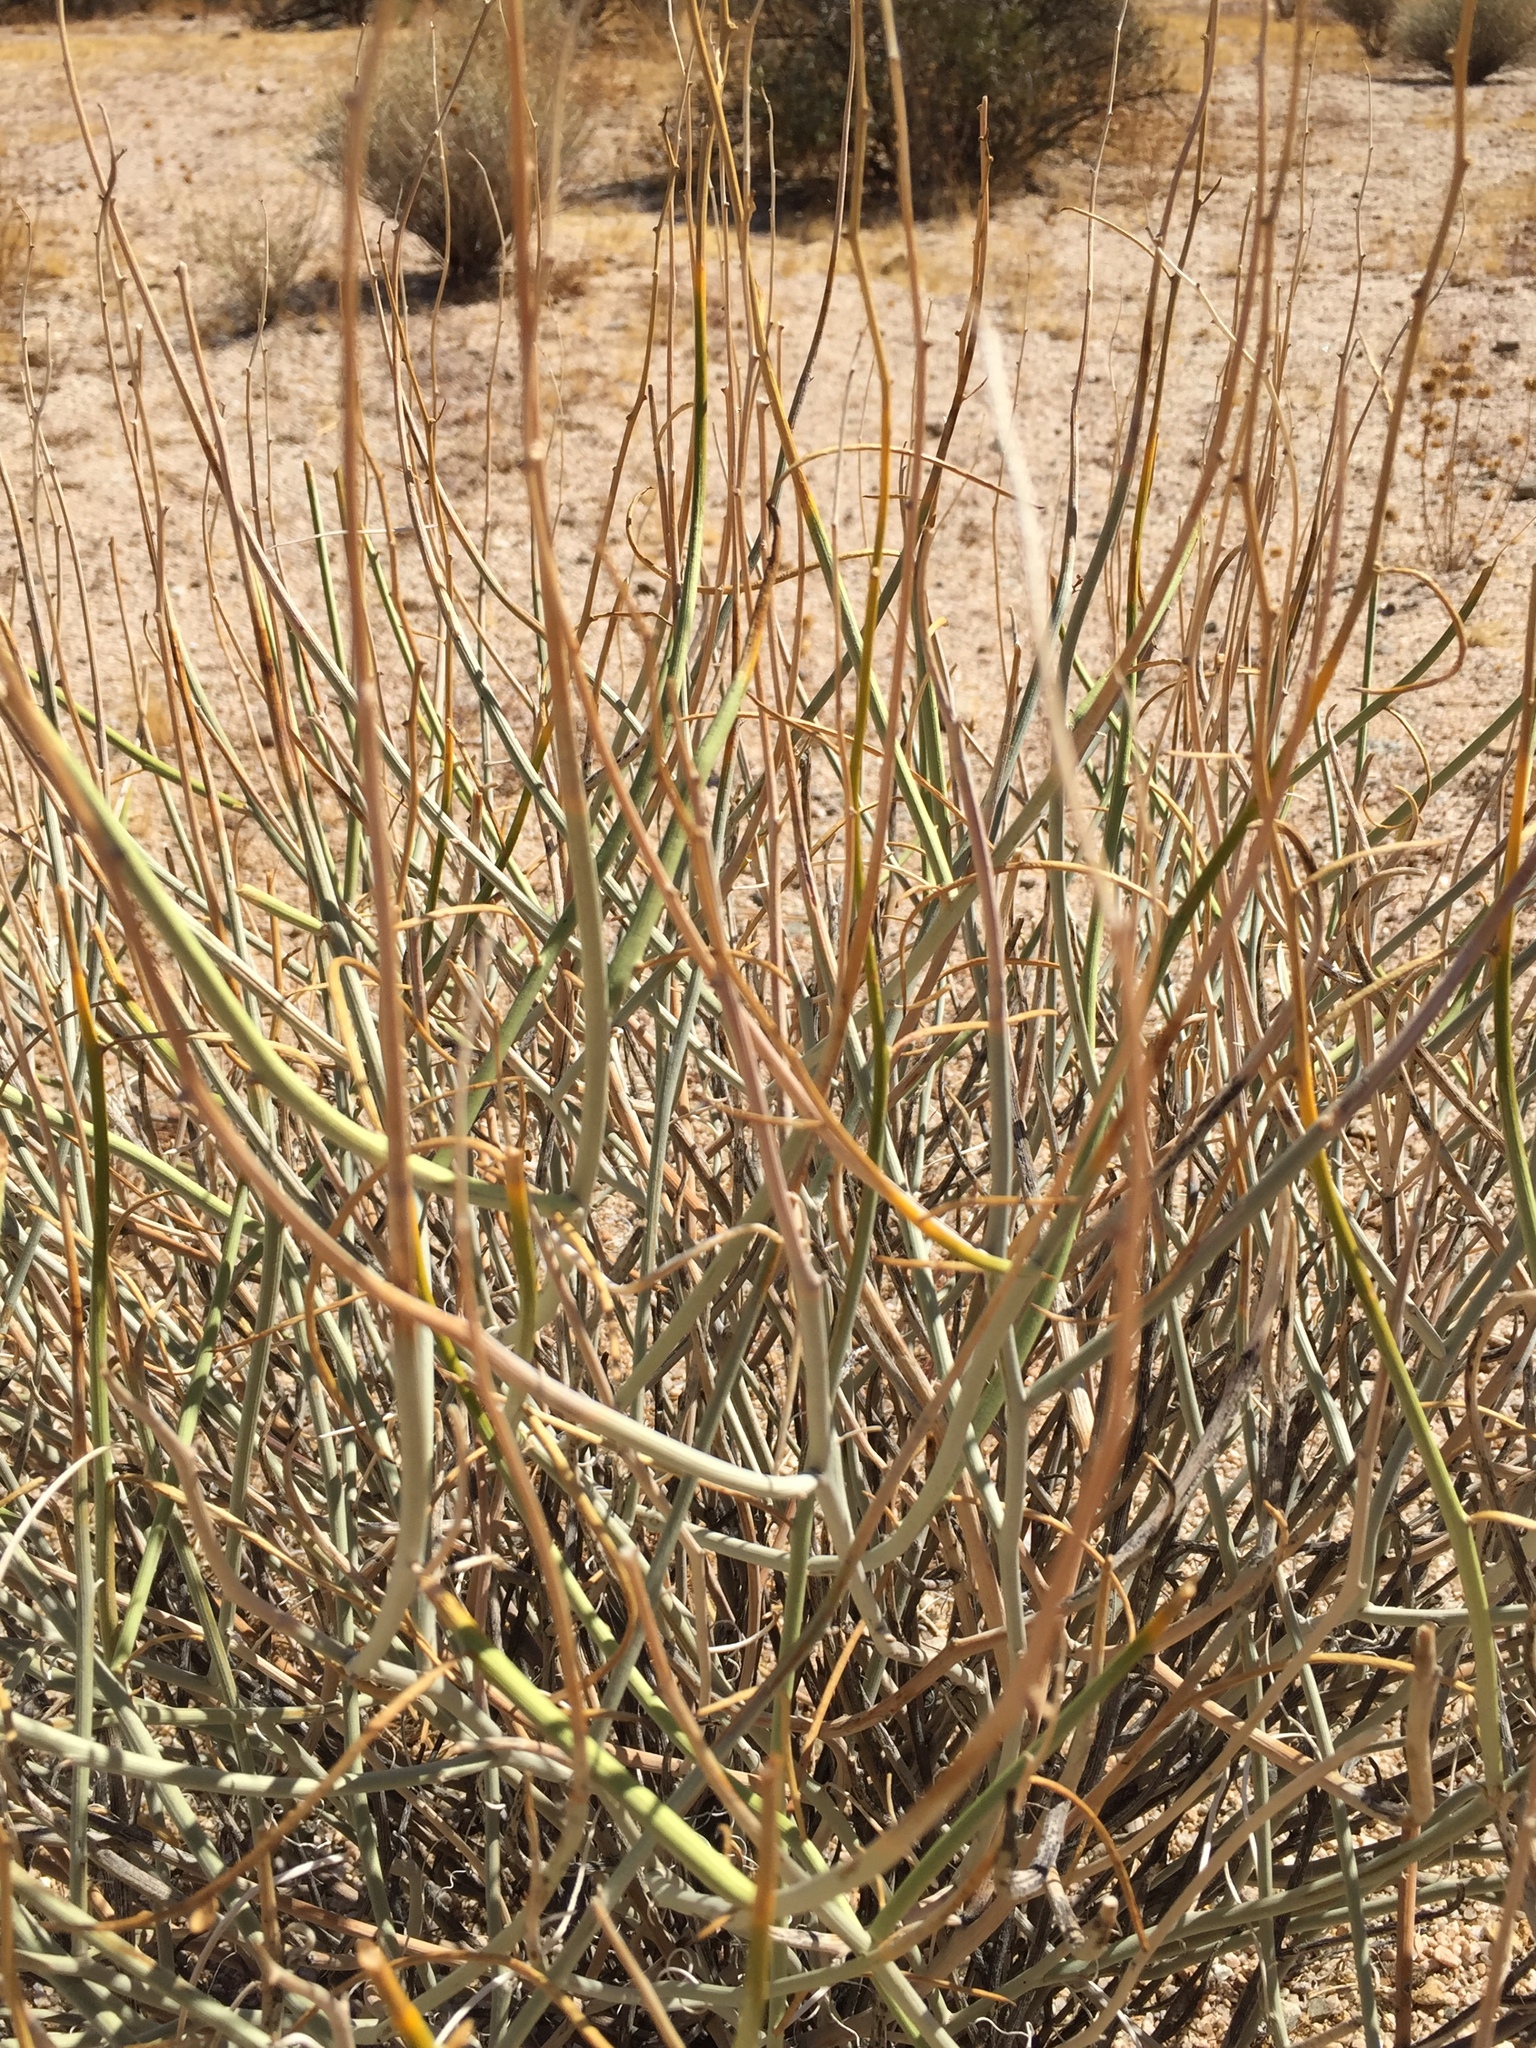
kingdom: Plantae
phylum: Tracheophyta
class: Magnoliopsida
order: Fabales
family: Fabaceae
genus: Senna
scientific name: Senna armata
